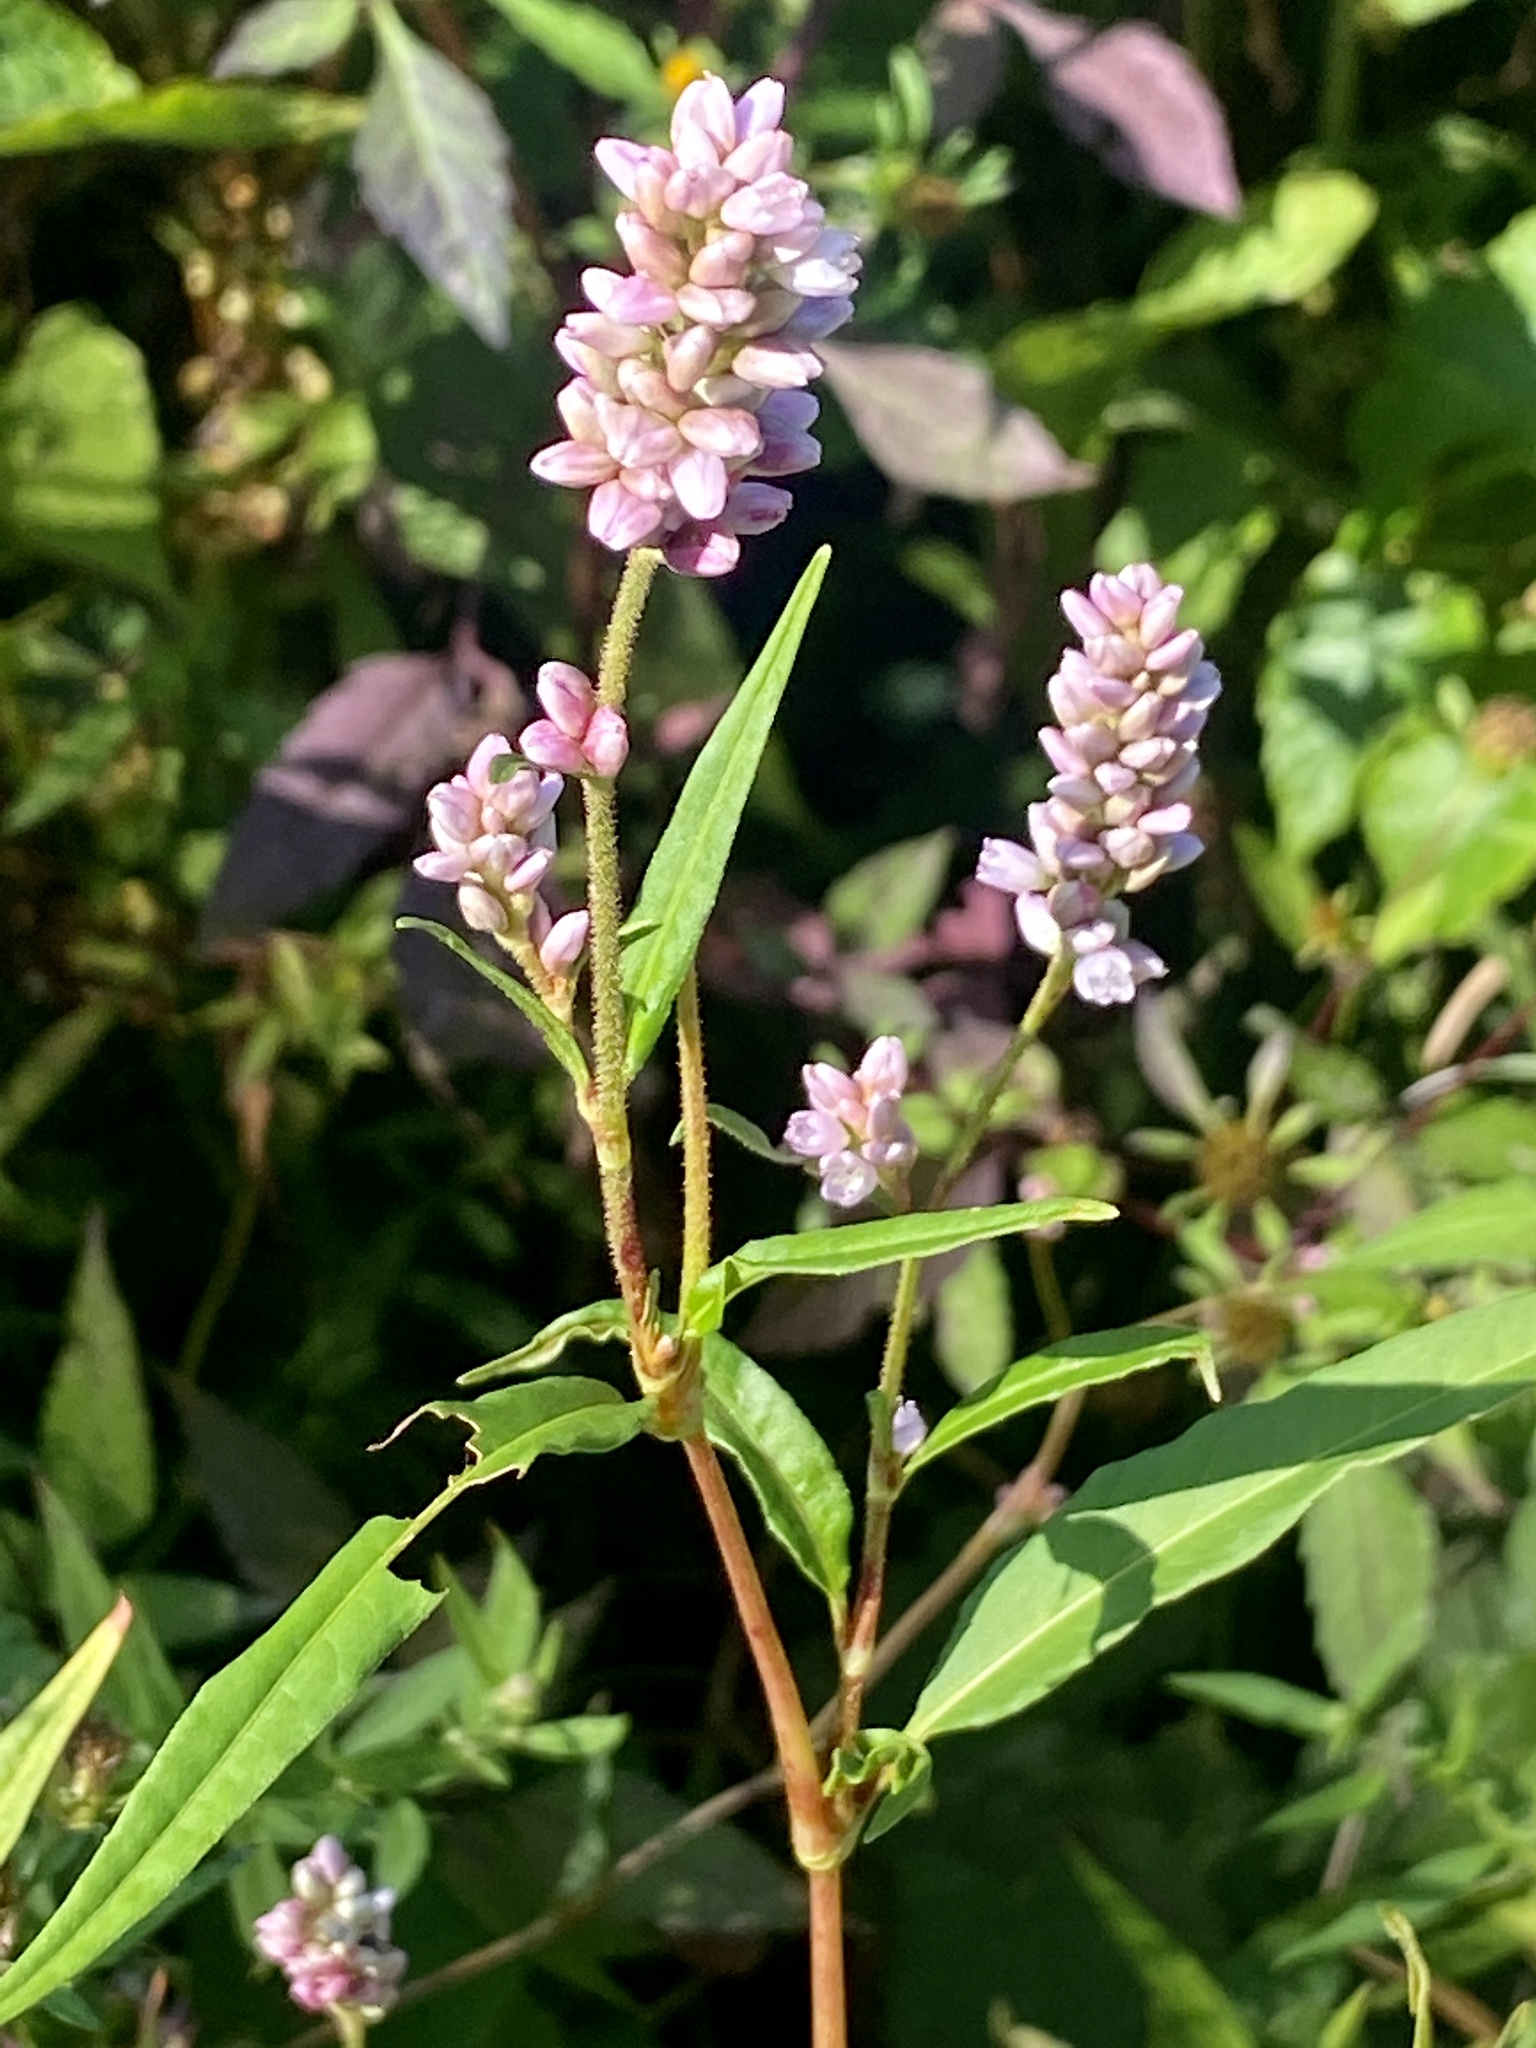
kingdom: Plantae
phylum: Tracheophyta
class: Magnoliopsida
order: Caryophyllales
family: Polygonaceae
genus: Persicaria
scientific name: Persicaria pensylvanica
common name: Pinkweed
